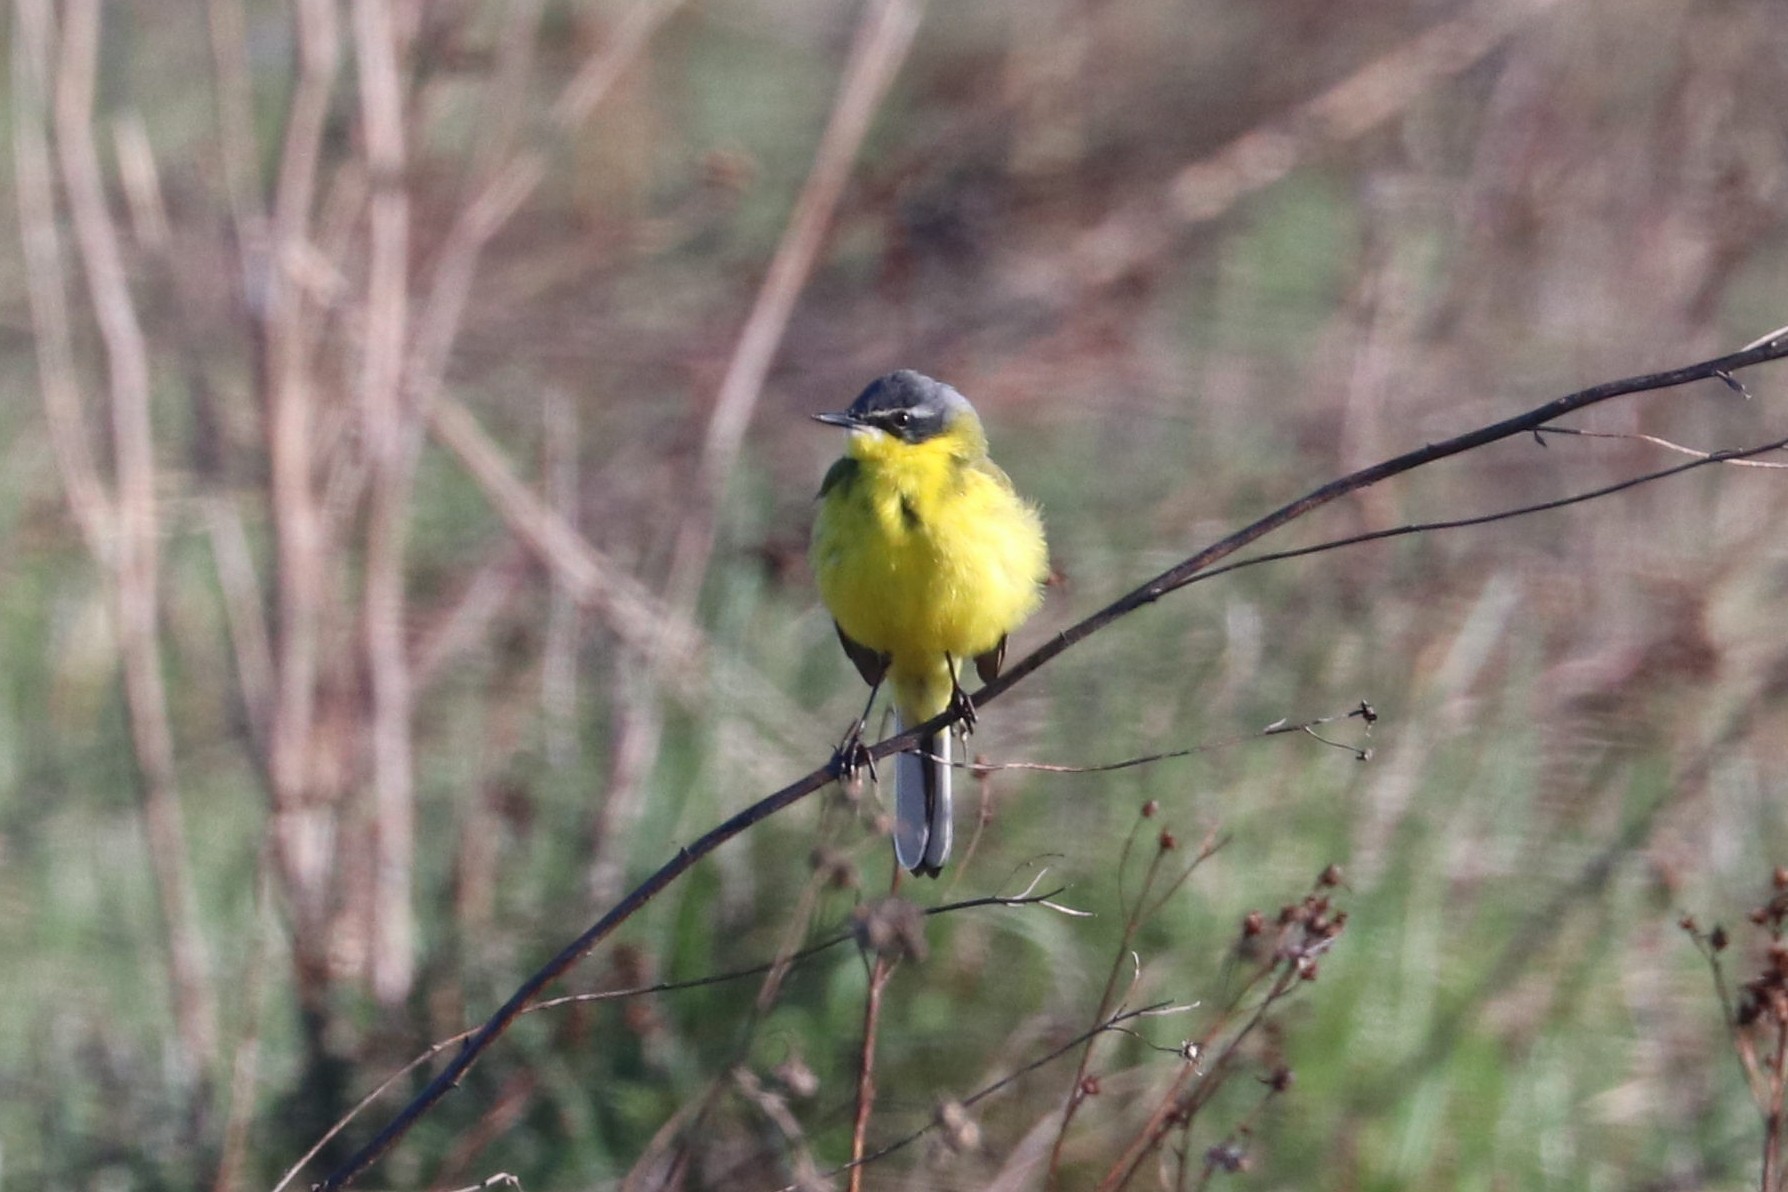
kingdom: Animalia
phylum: Chordata
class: Aves
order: Passeriformes
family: Motacillidae
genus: Motacilla
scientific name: Motacilla flava
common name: Western yellow wagtail
